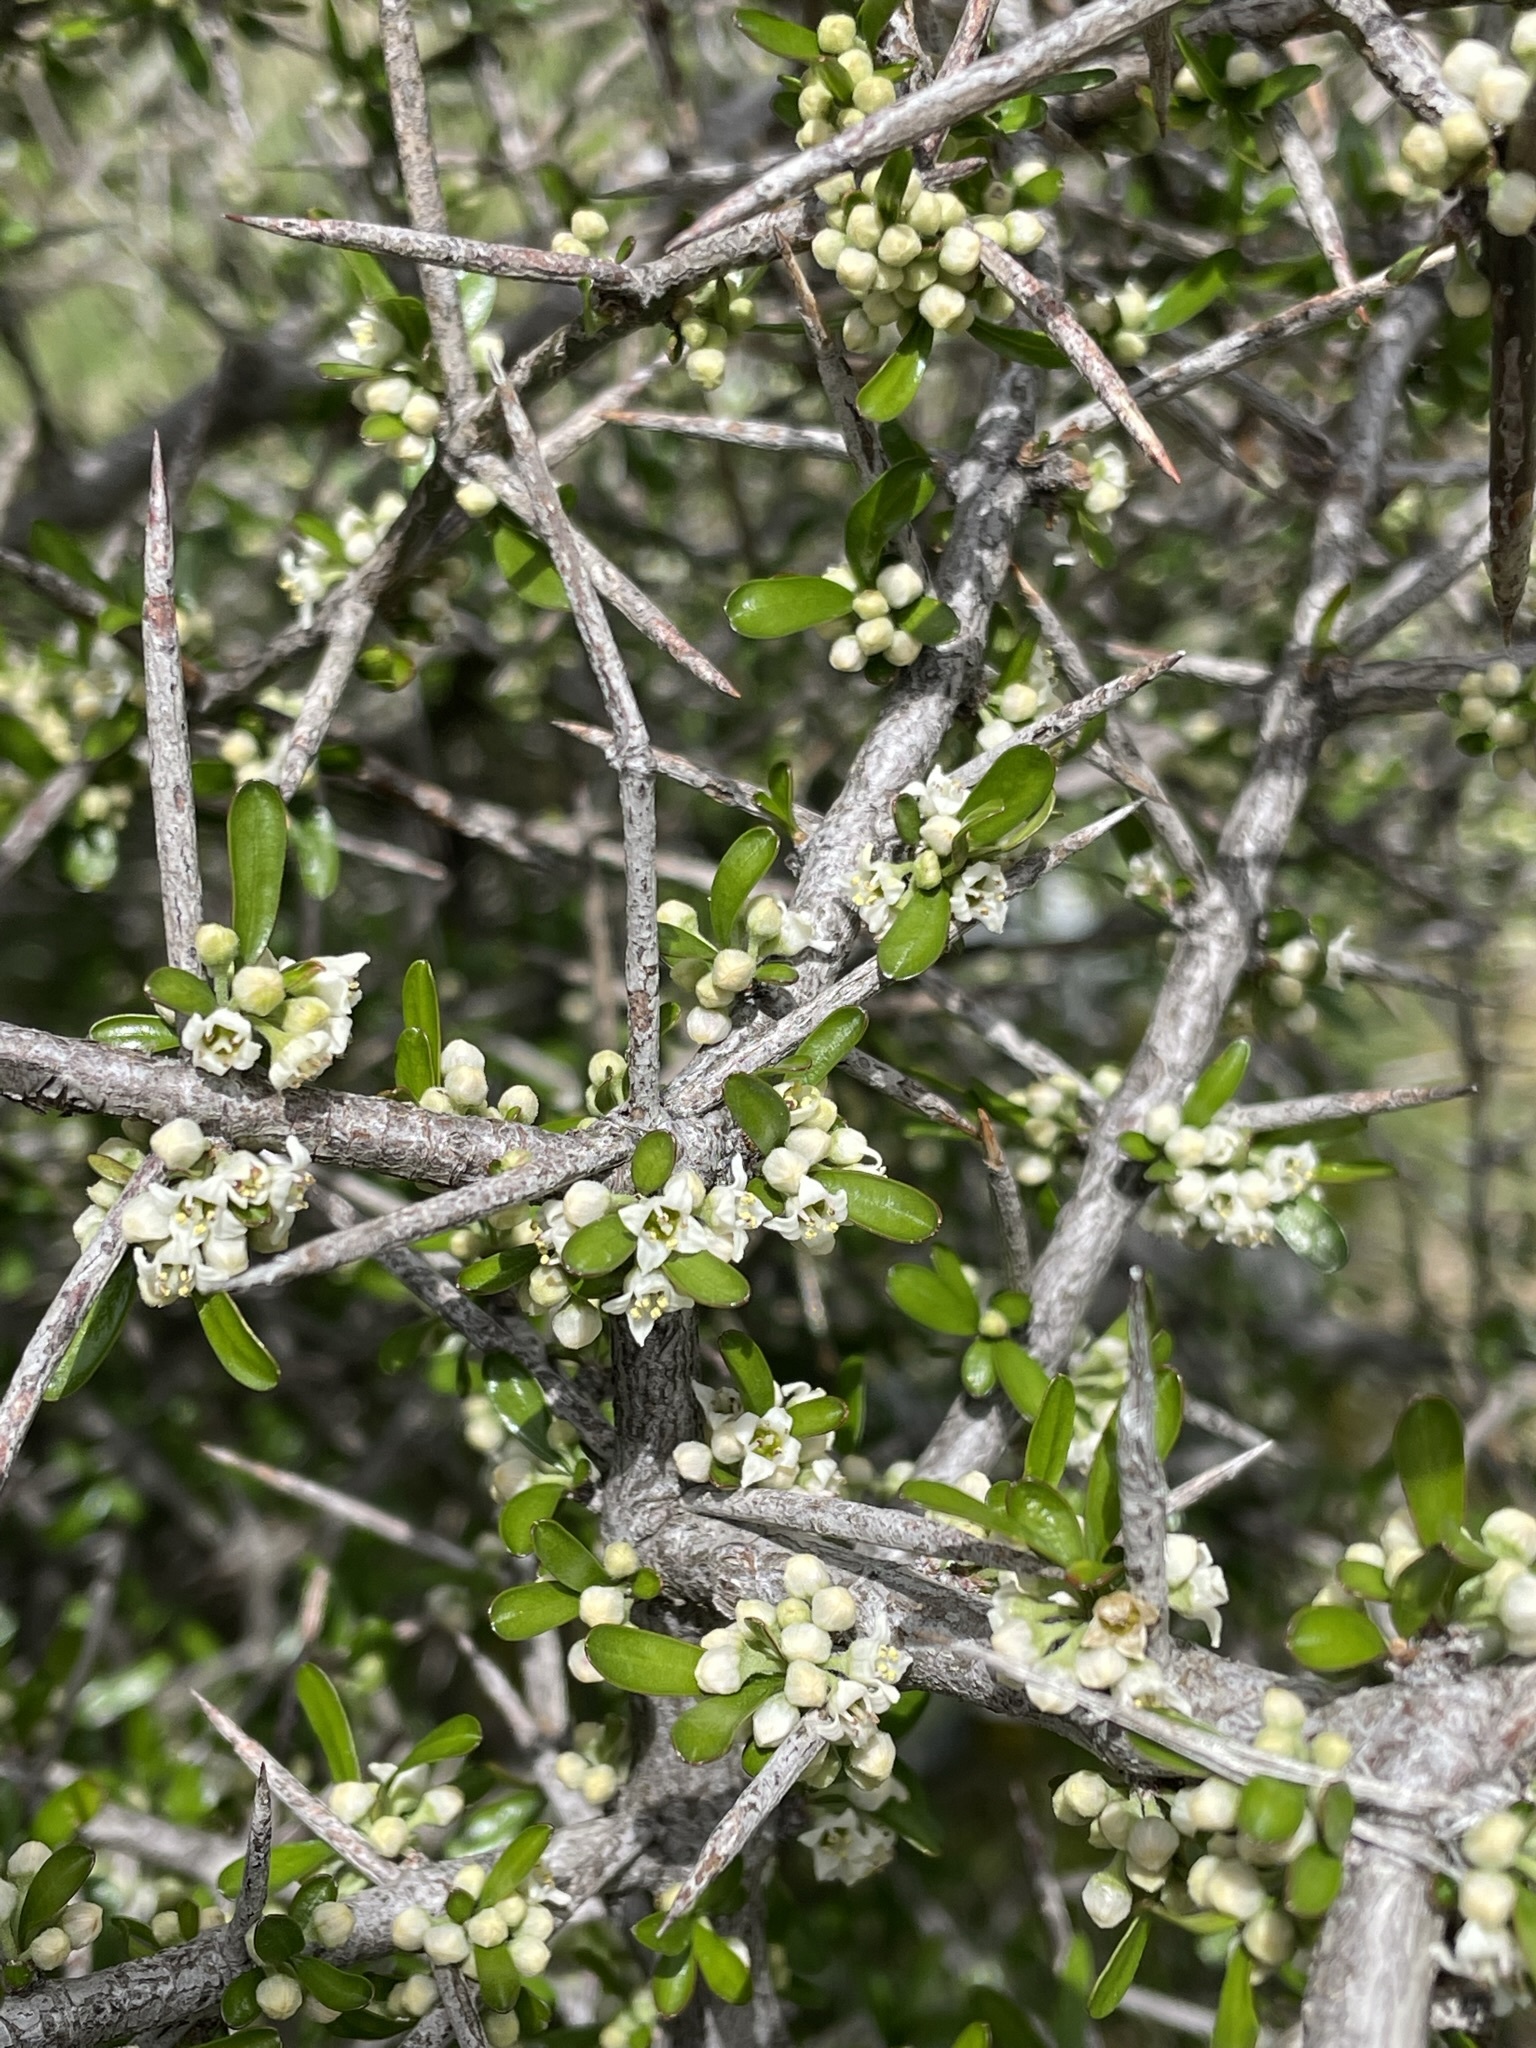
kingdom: Plantae
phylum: Tracheophyta
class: Magnoliopsida
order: Rosales
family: Rhamnaceae
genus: Discaria
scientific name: Discaria toumatou
